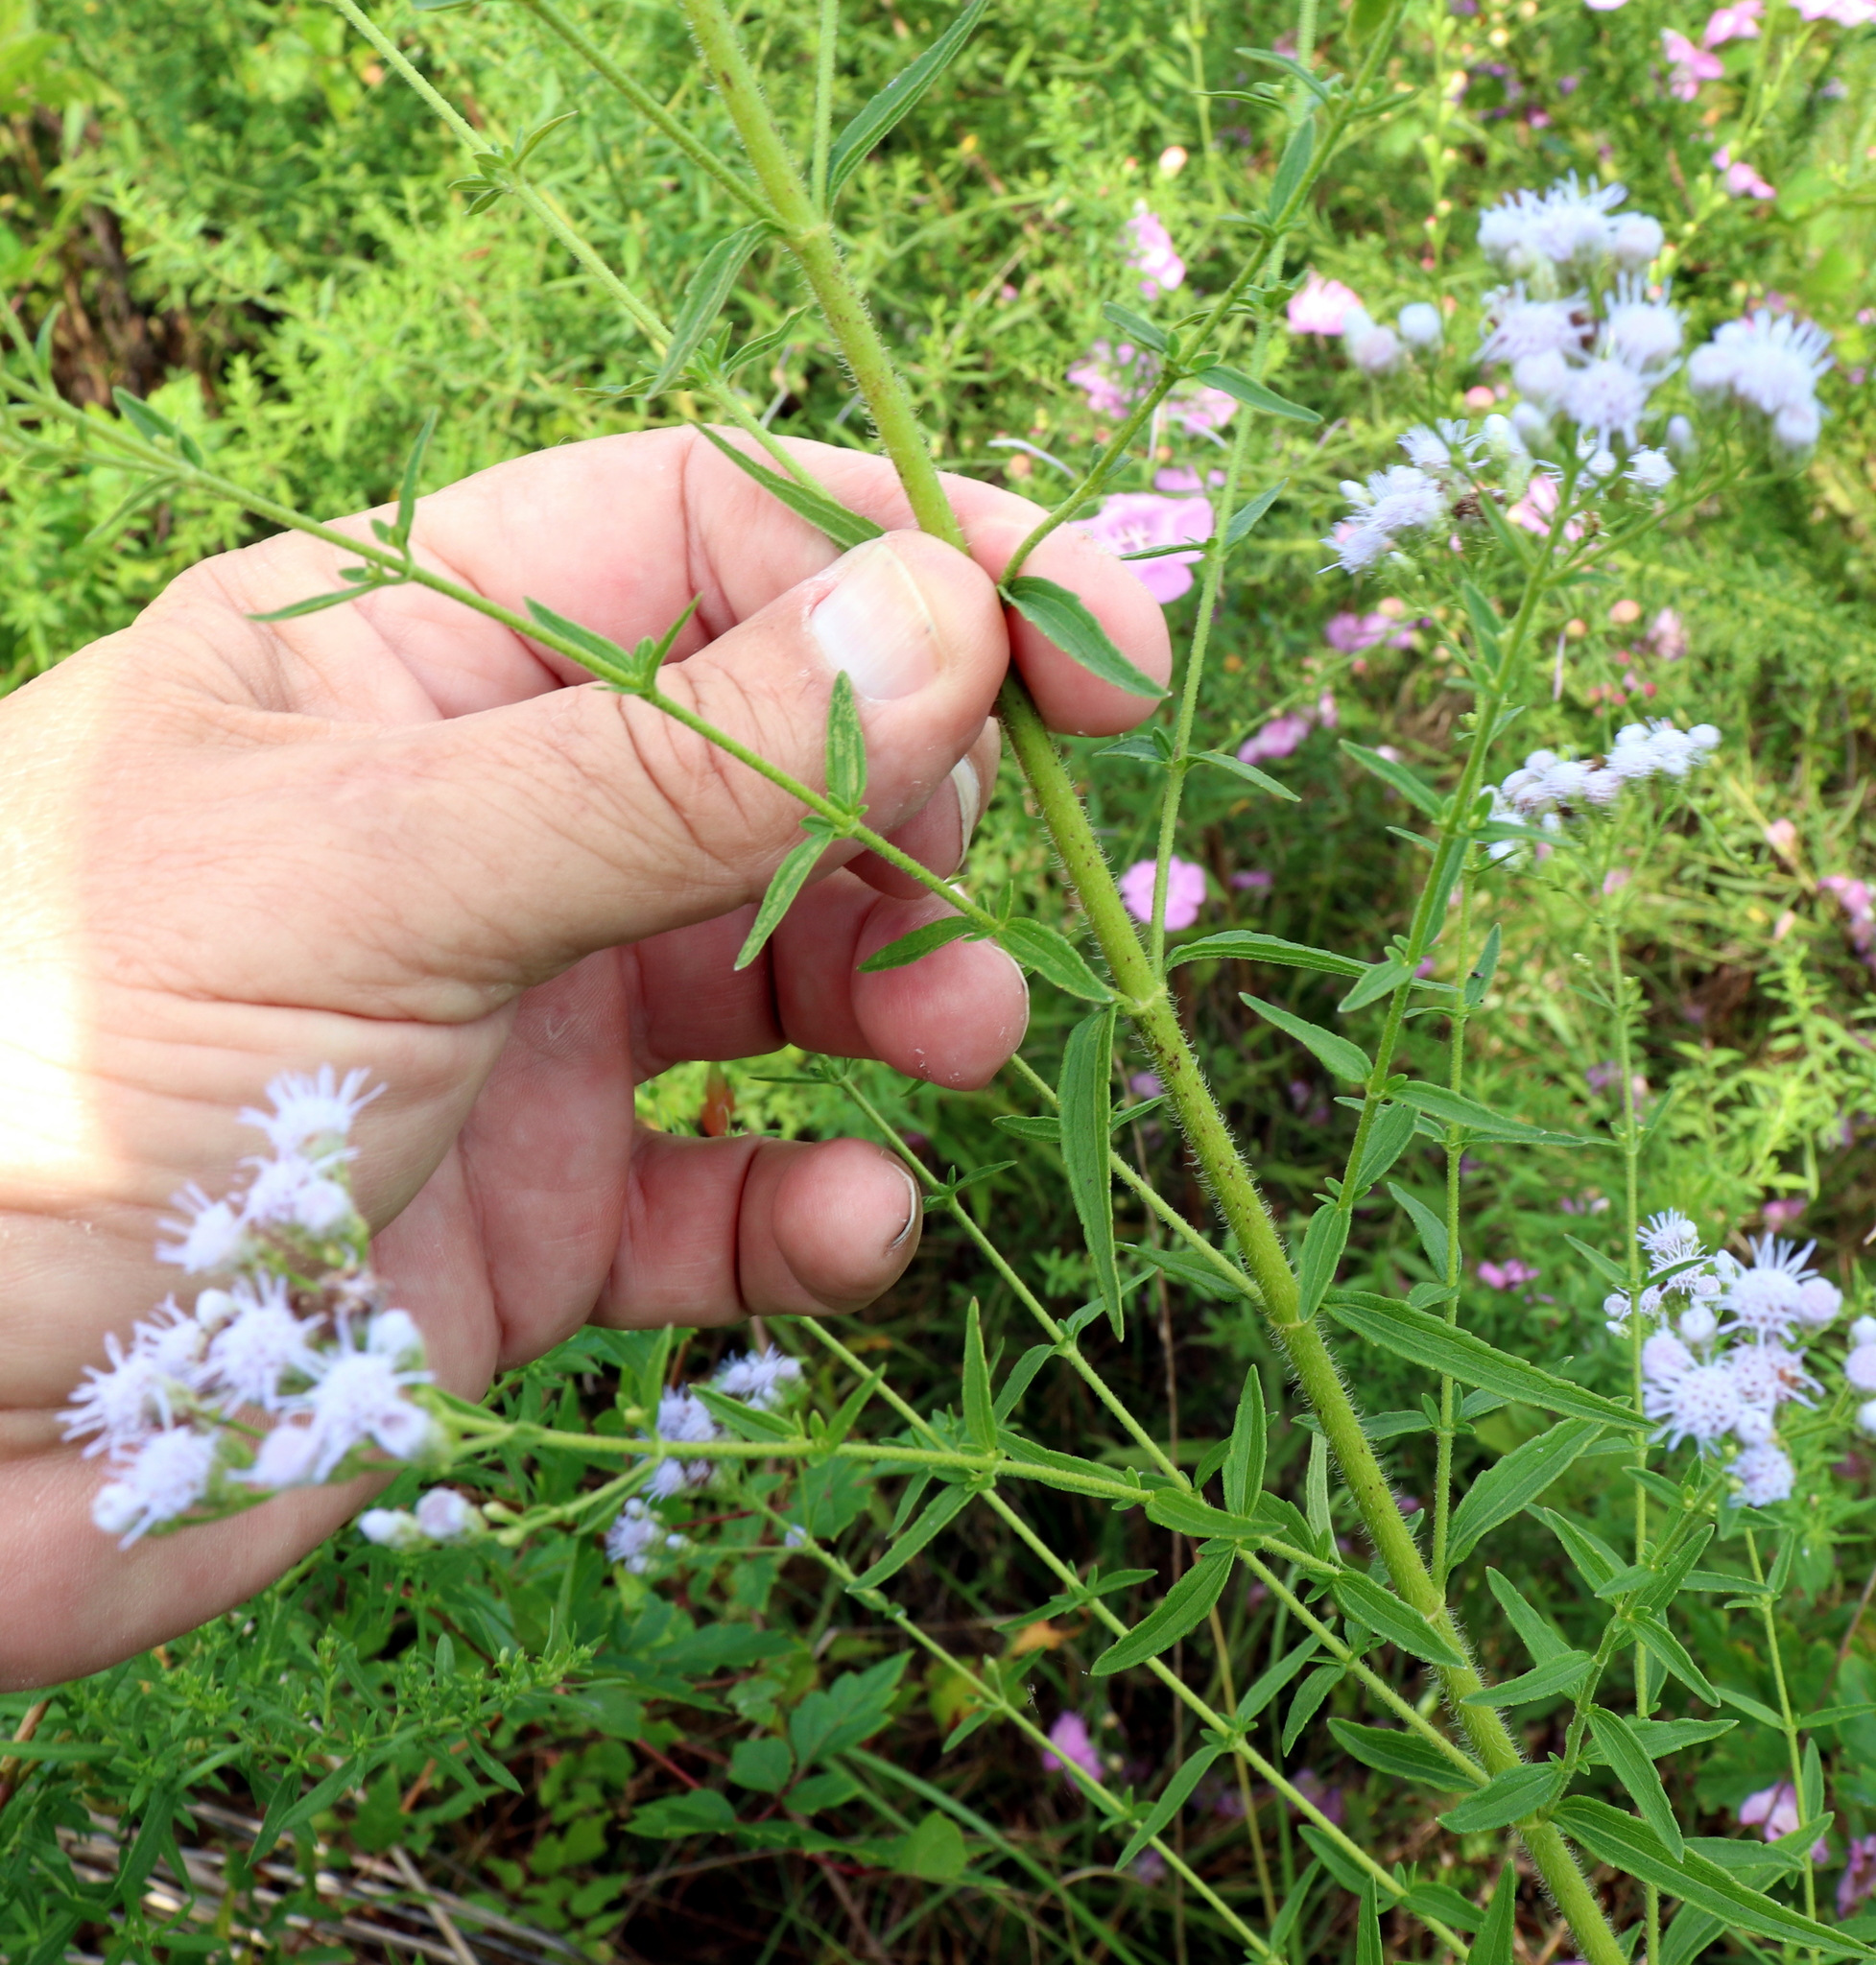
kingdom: Plantae
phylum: Tracheophyta
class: Magnoliopsida
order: Asterales
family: Asteraceae
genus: Chromolaena
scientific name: Chromolaena ivifolia
